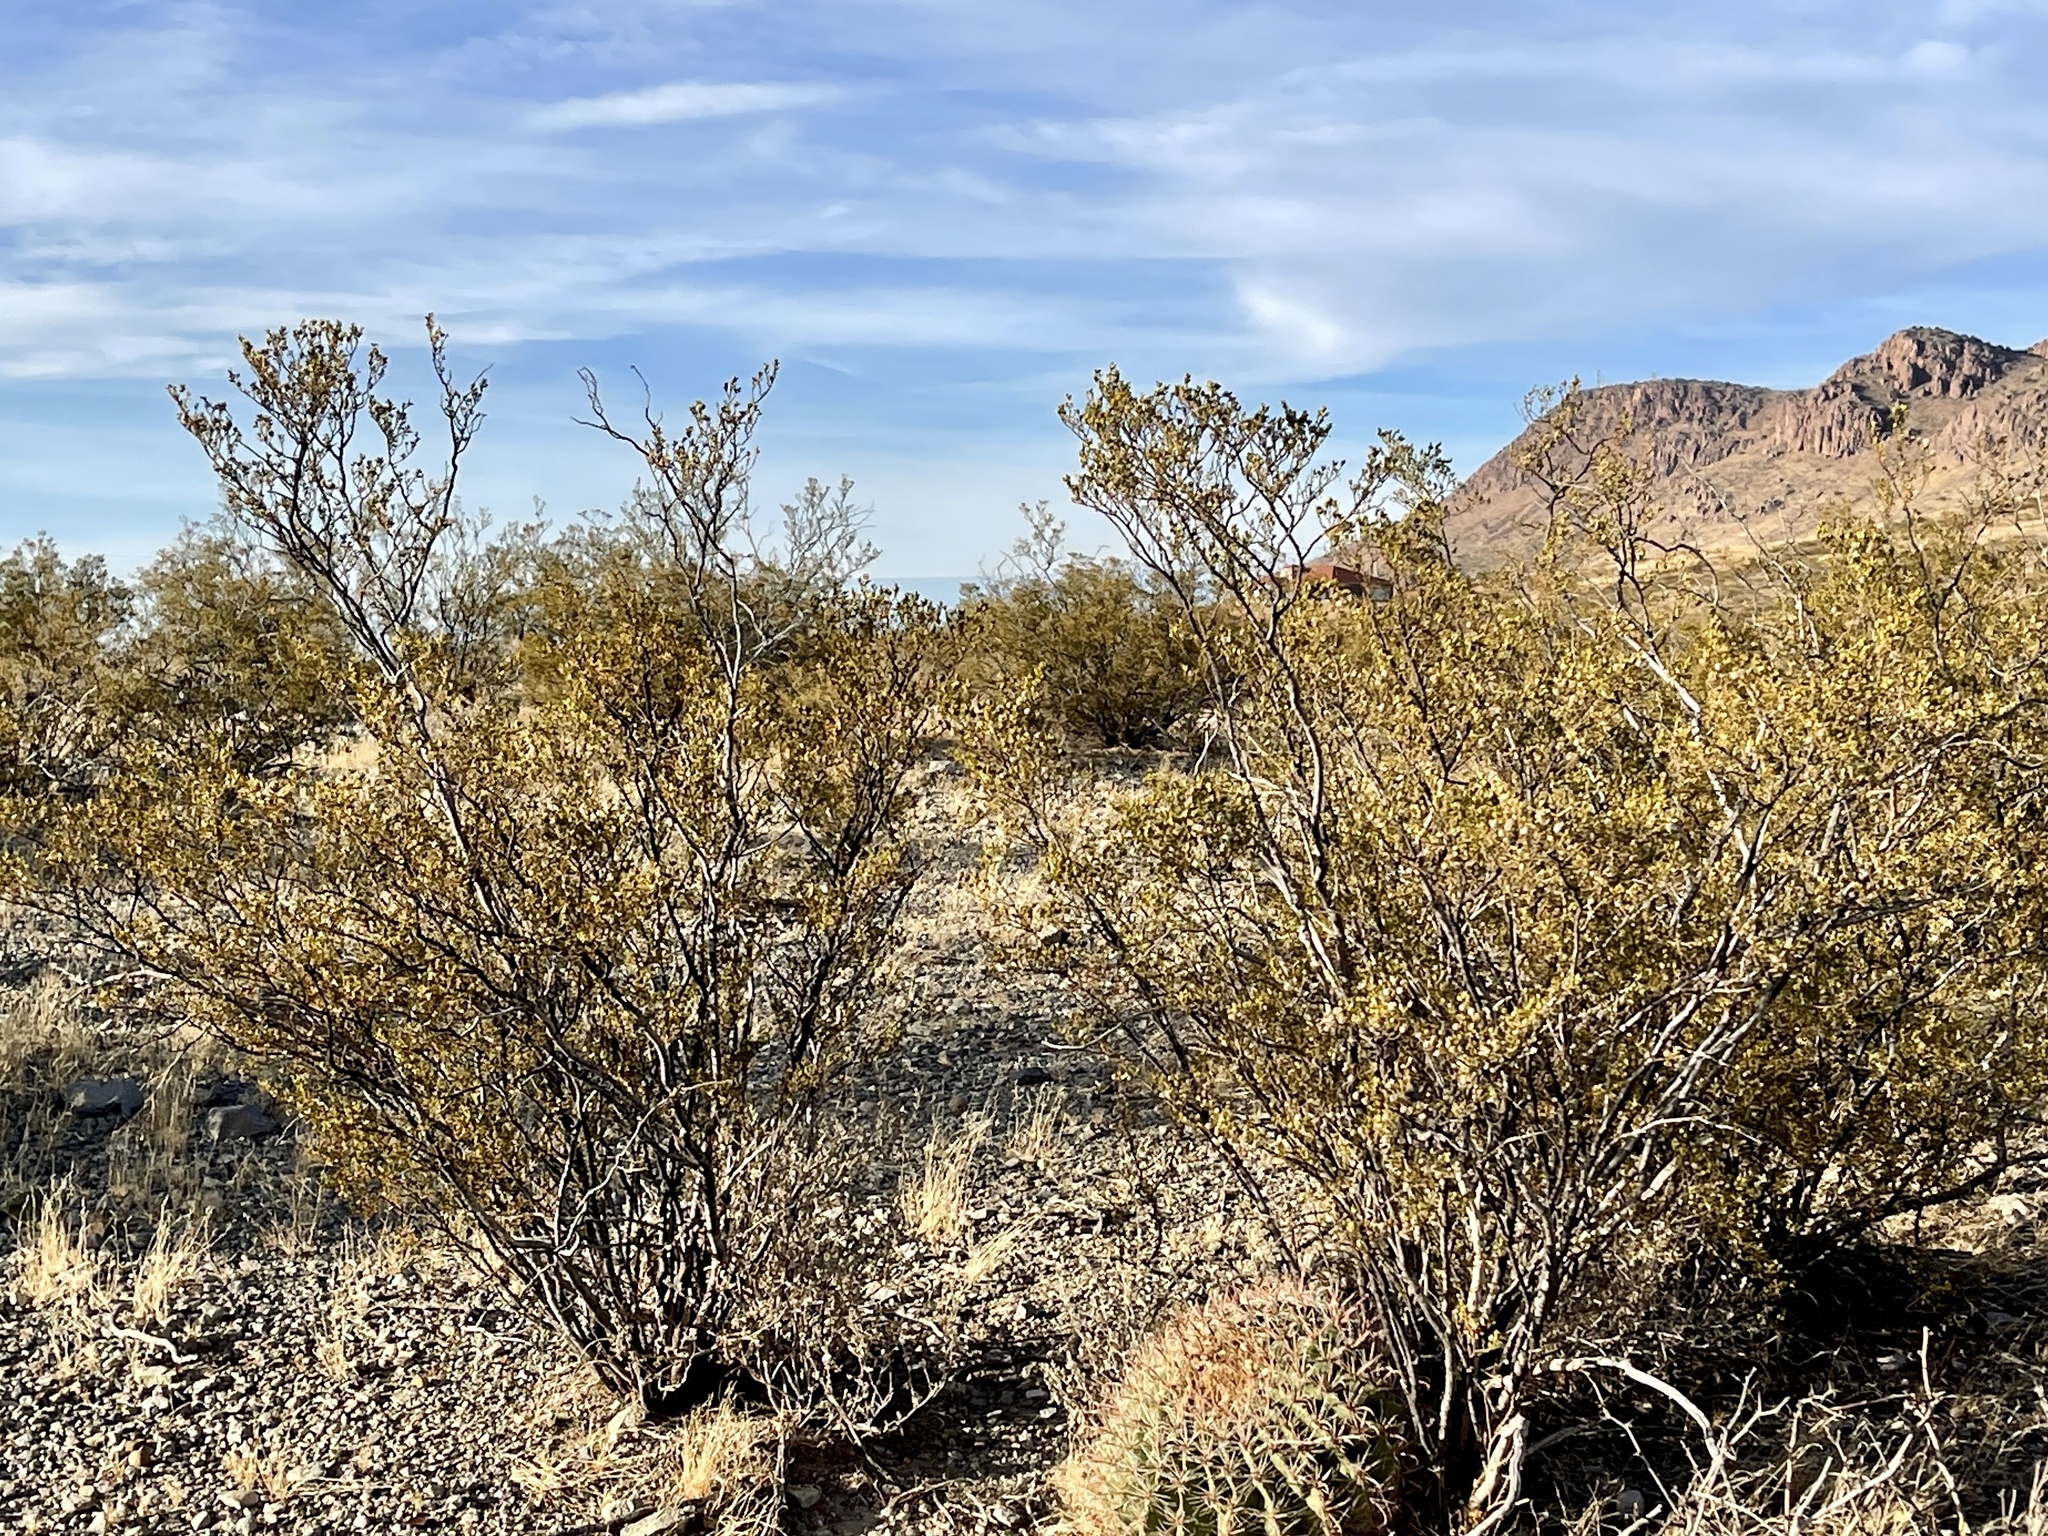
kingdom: Plantae
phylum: Tracheophyta
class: Magnoliopsida
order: Zygophyllales
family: Zygophyllaceae
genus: Larrea
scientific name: Larrea tridentata
